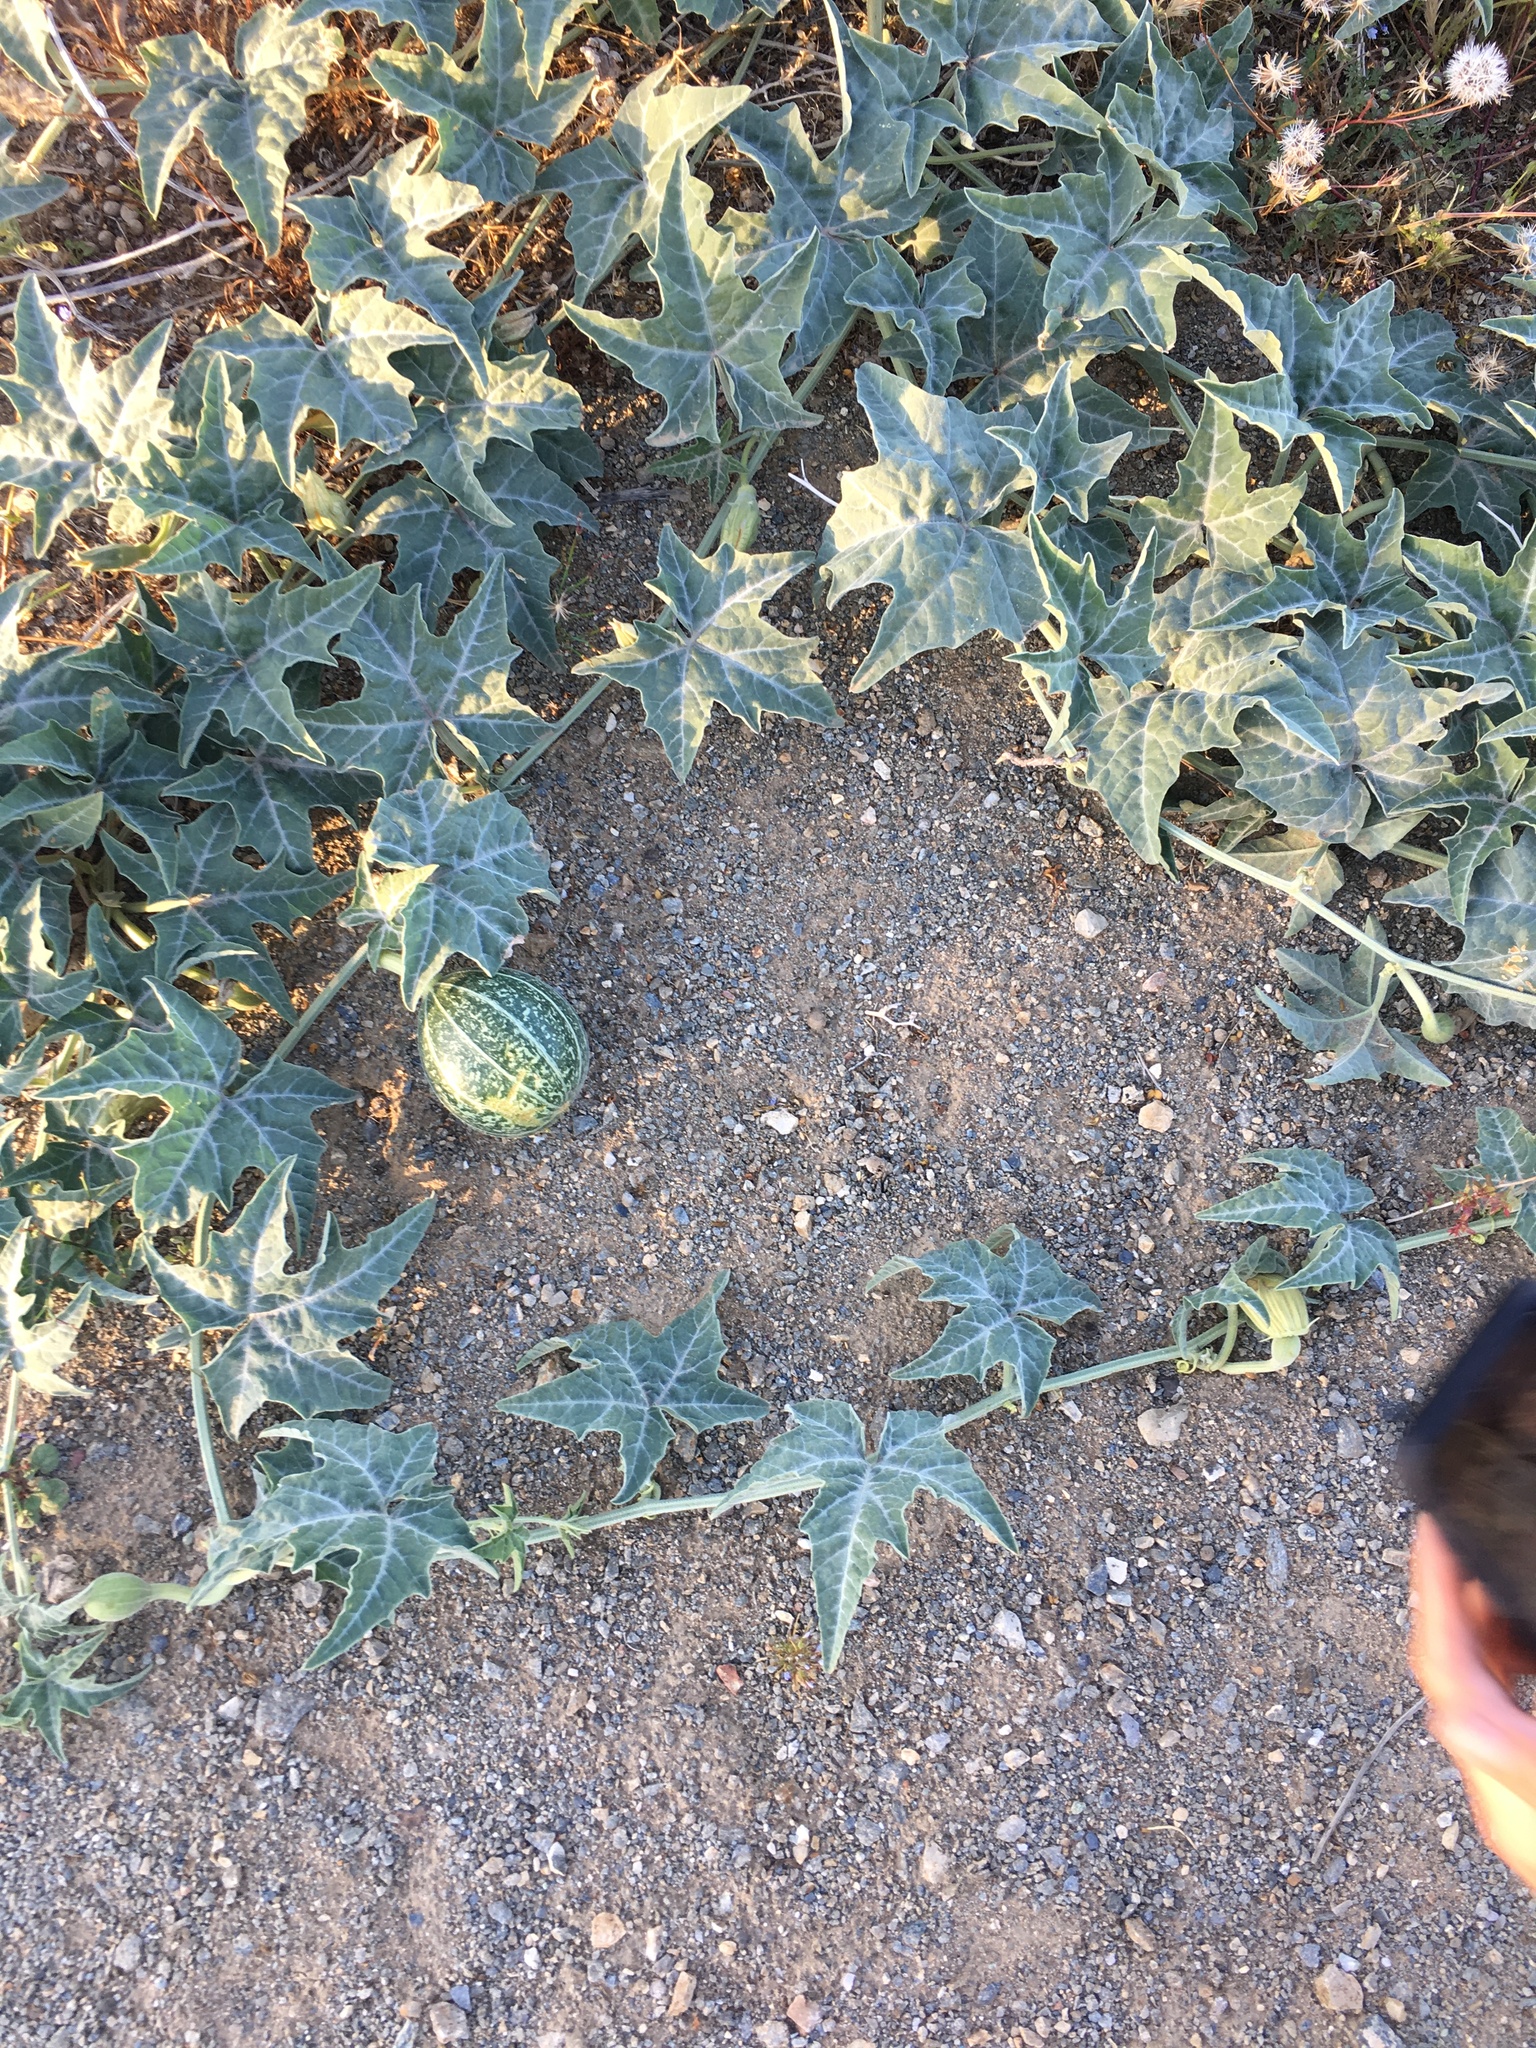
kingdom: Plantae
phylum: Tracheophyta
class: Magnoliopsida
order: Cucurbitales
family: Cucurbitaceae
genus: Cucurbita
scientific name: Cucurbita palmata
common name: Coyote-melon
